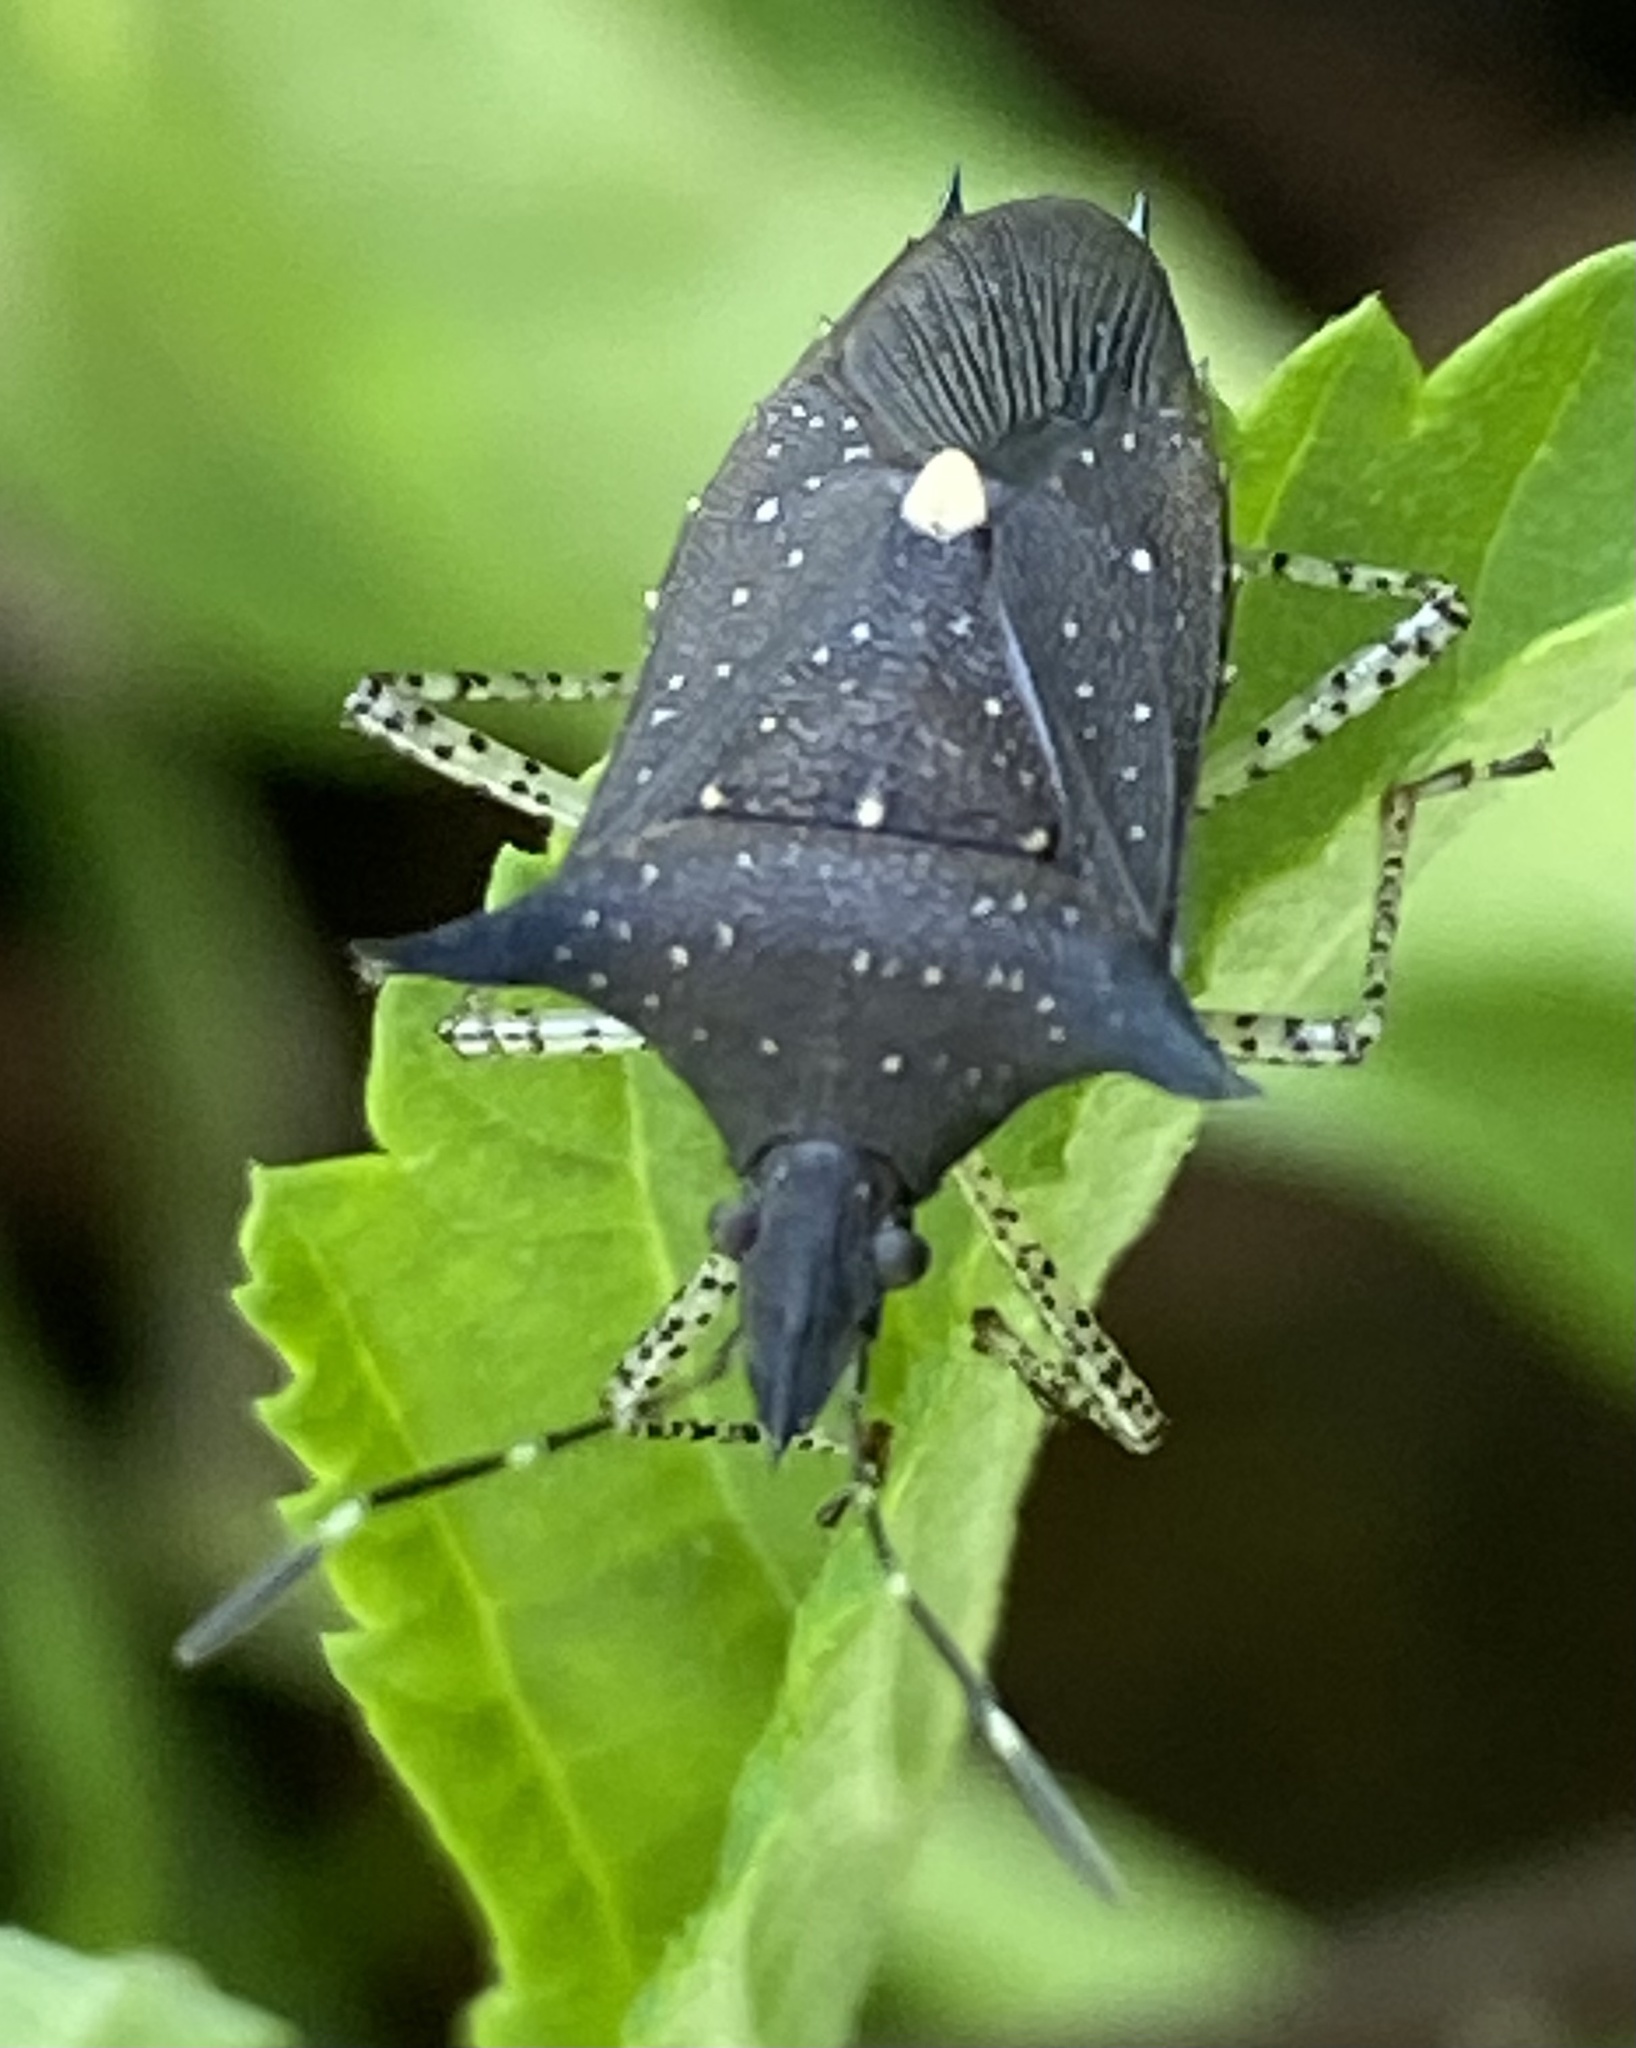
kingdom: Animalia
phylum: Arthropoda
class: Insecta
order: Hemiptera
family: Pentatomidae
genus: Proxys
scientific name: Proxys albopunctulatus
